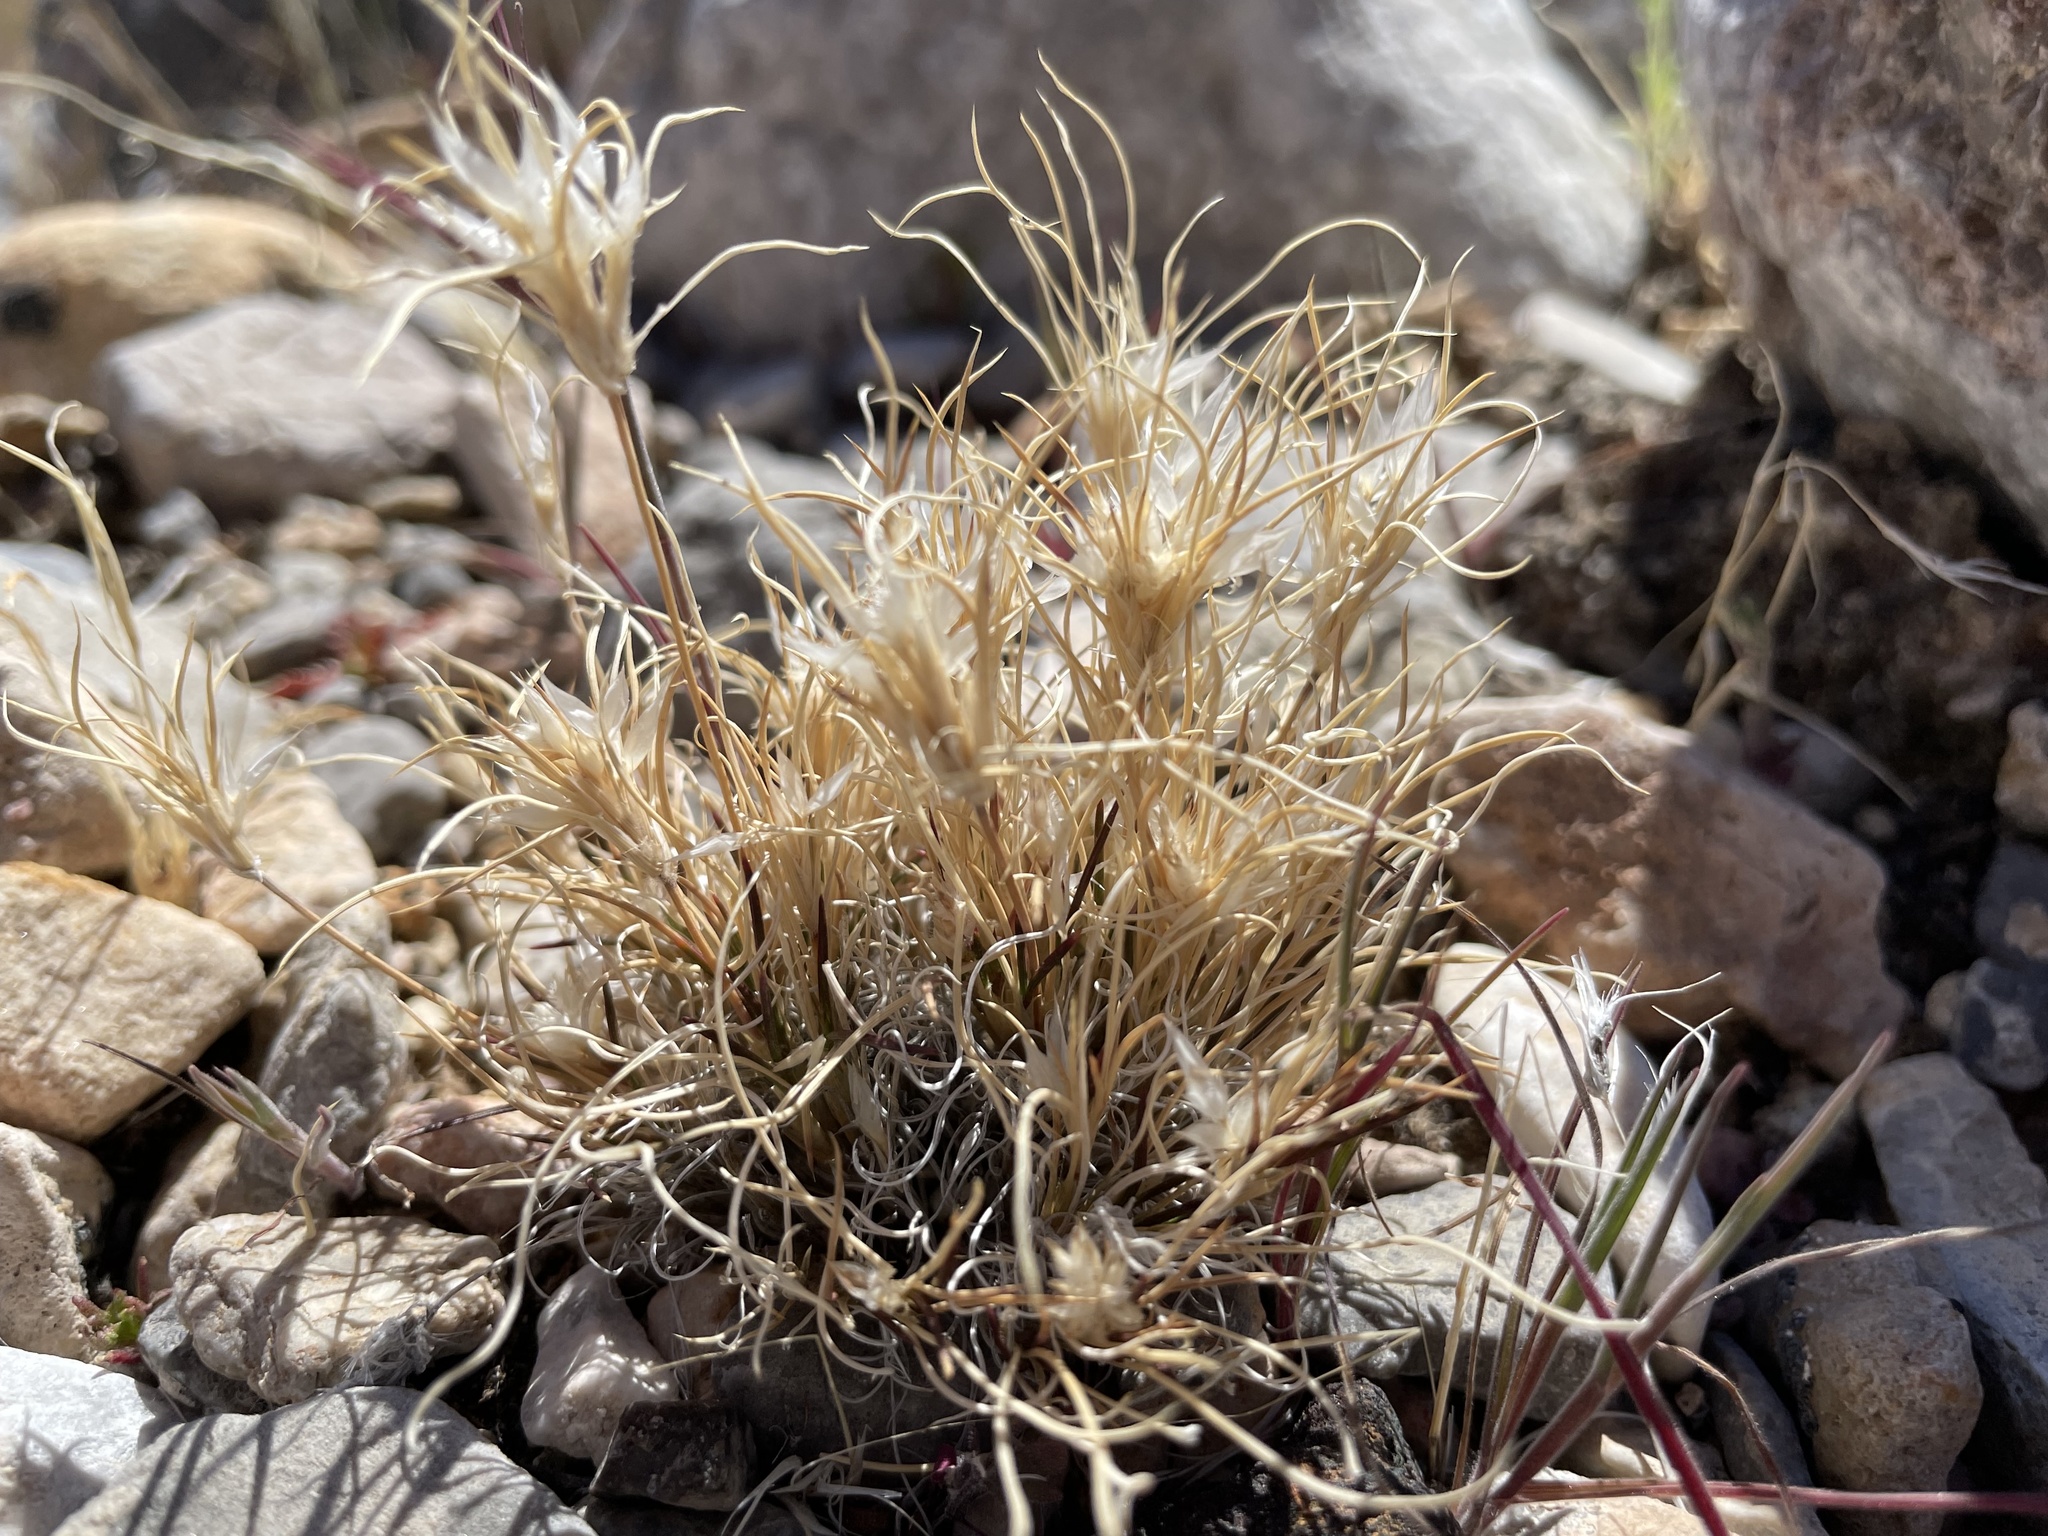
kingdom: Plantae
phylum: Tracheophyta
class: Liliopsida
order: Poales
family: Poaceae
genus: Dasyochloa
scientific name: Dasyochloa pulchella
